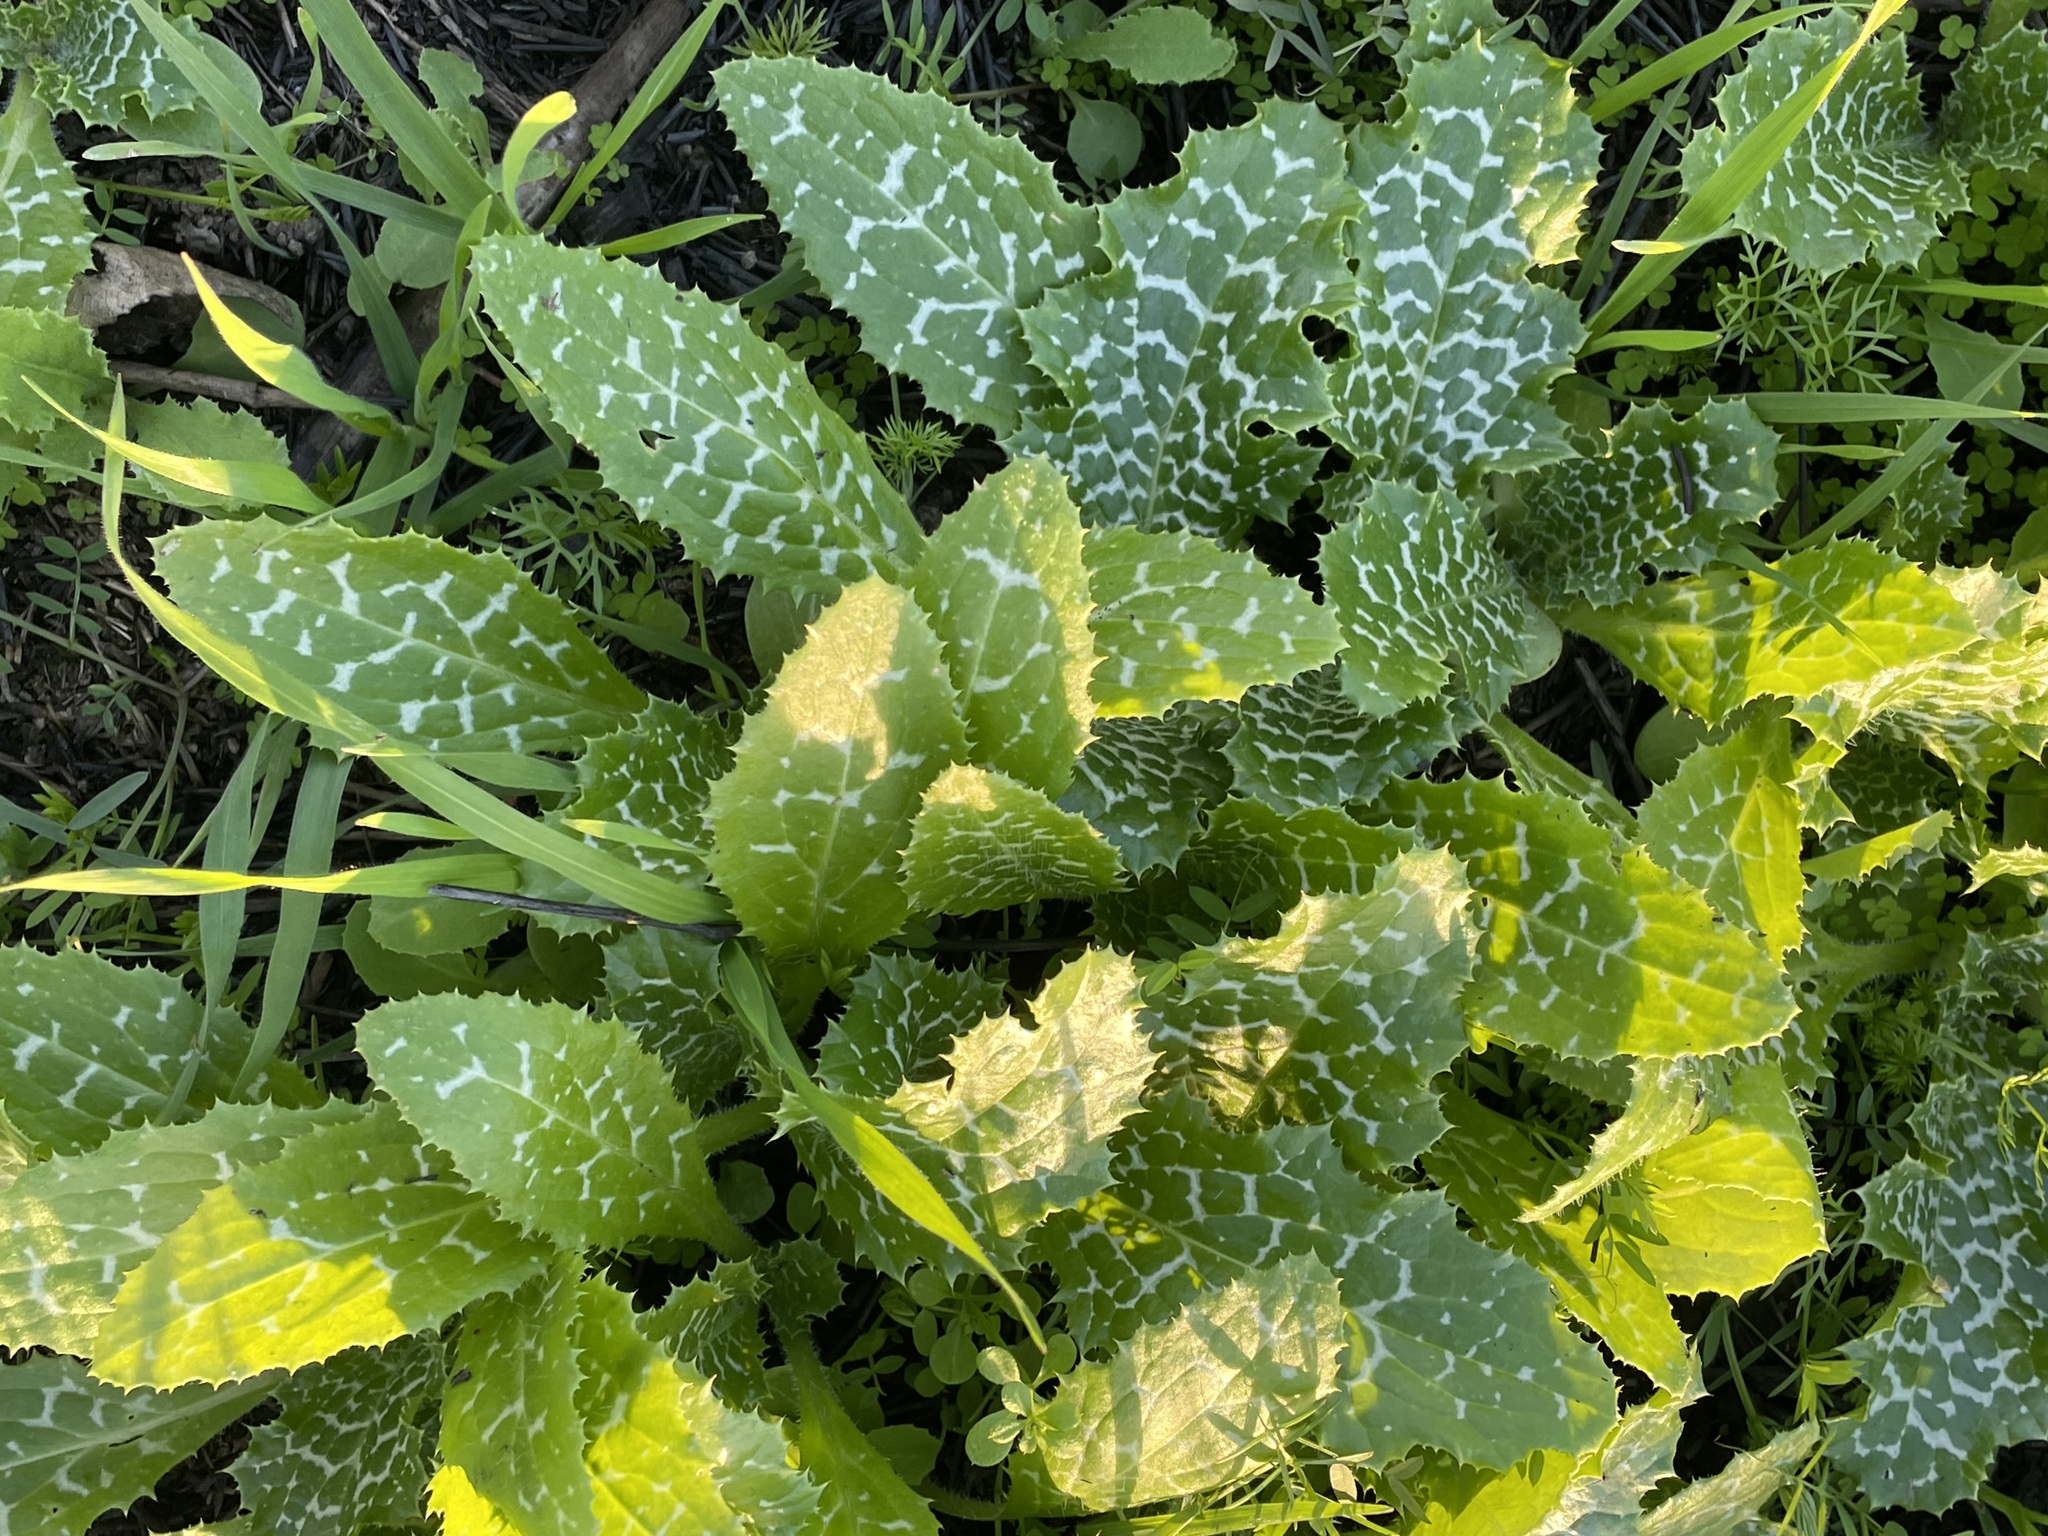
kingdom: Plantae
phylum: Tracheophyta
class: Magnoliopsida
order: Asterales
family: Asteraceae
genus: Silybum
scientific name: Silybum marianum
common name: Milk thistle
